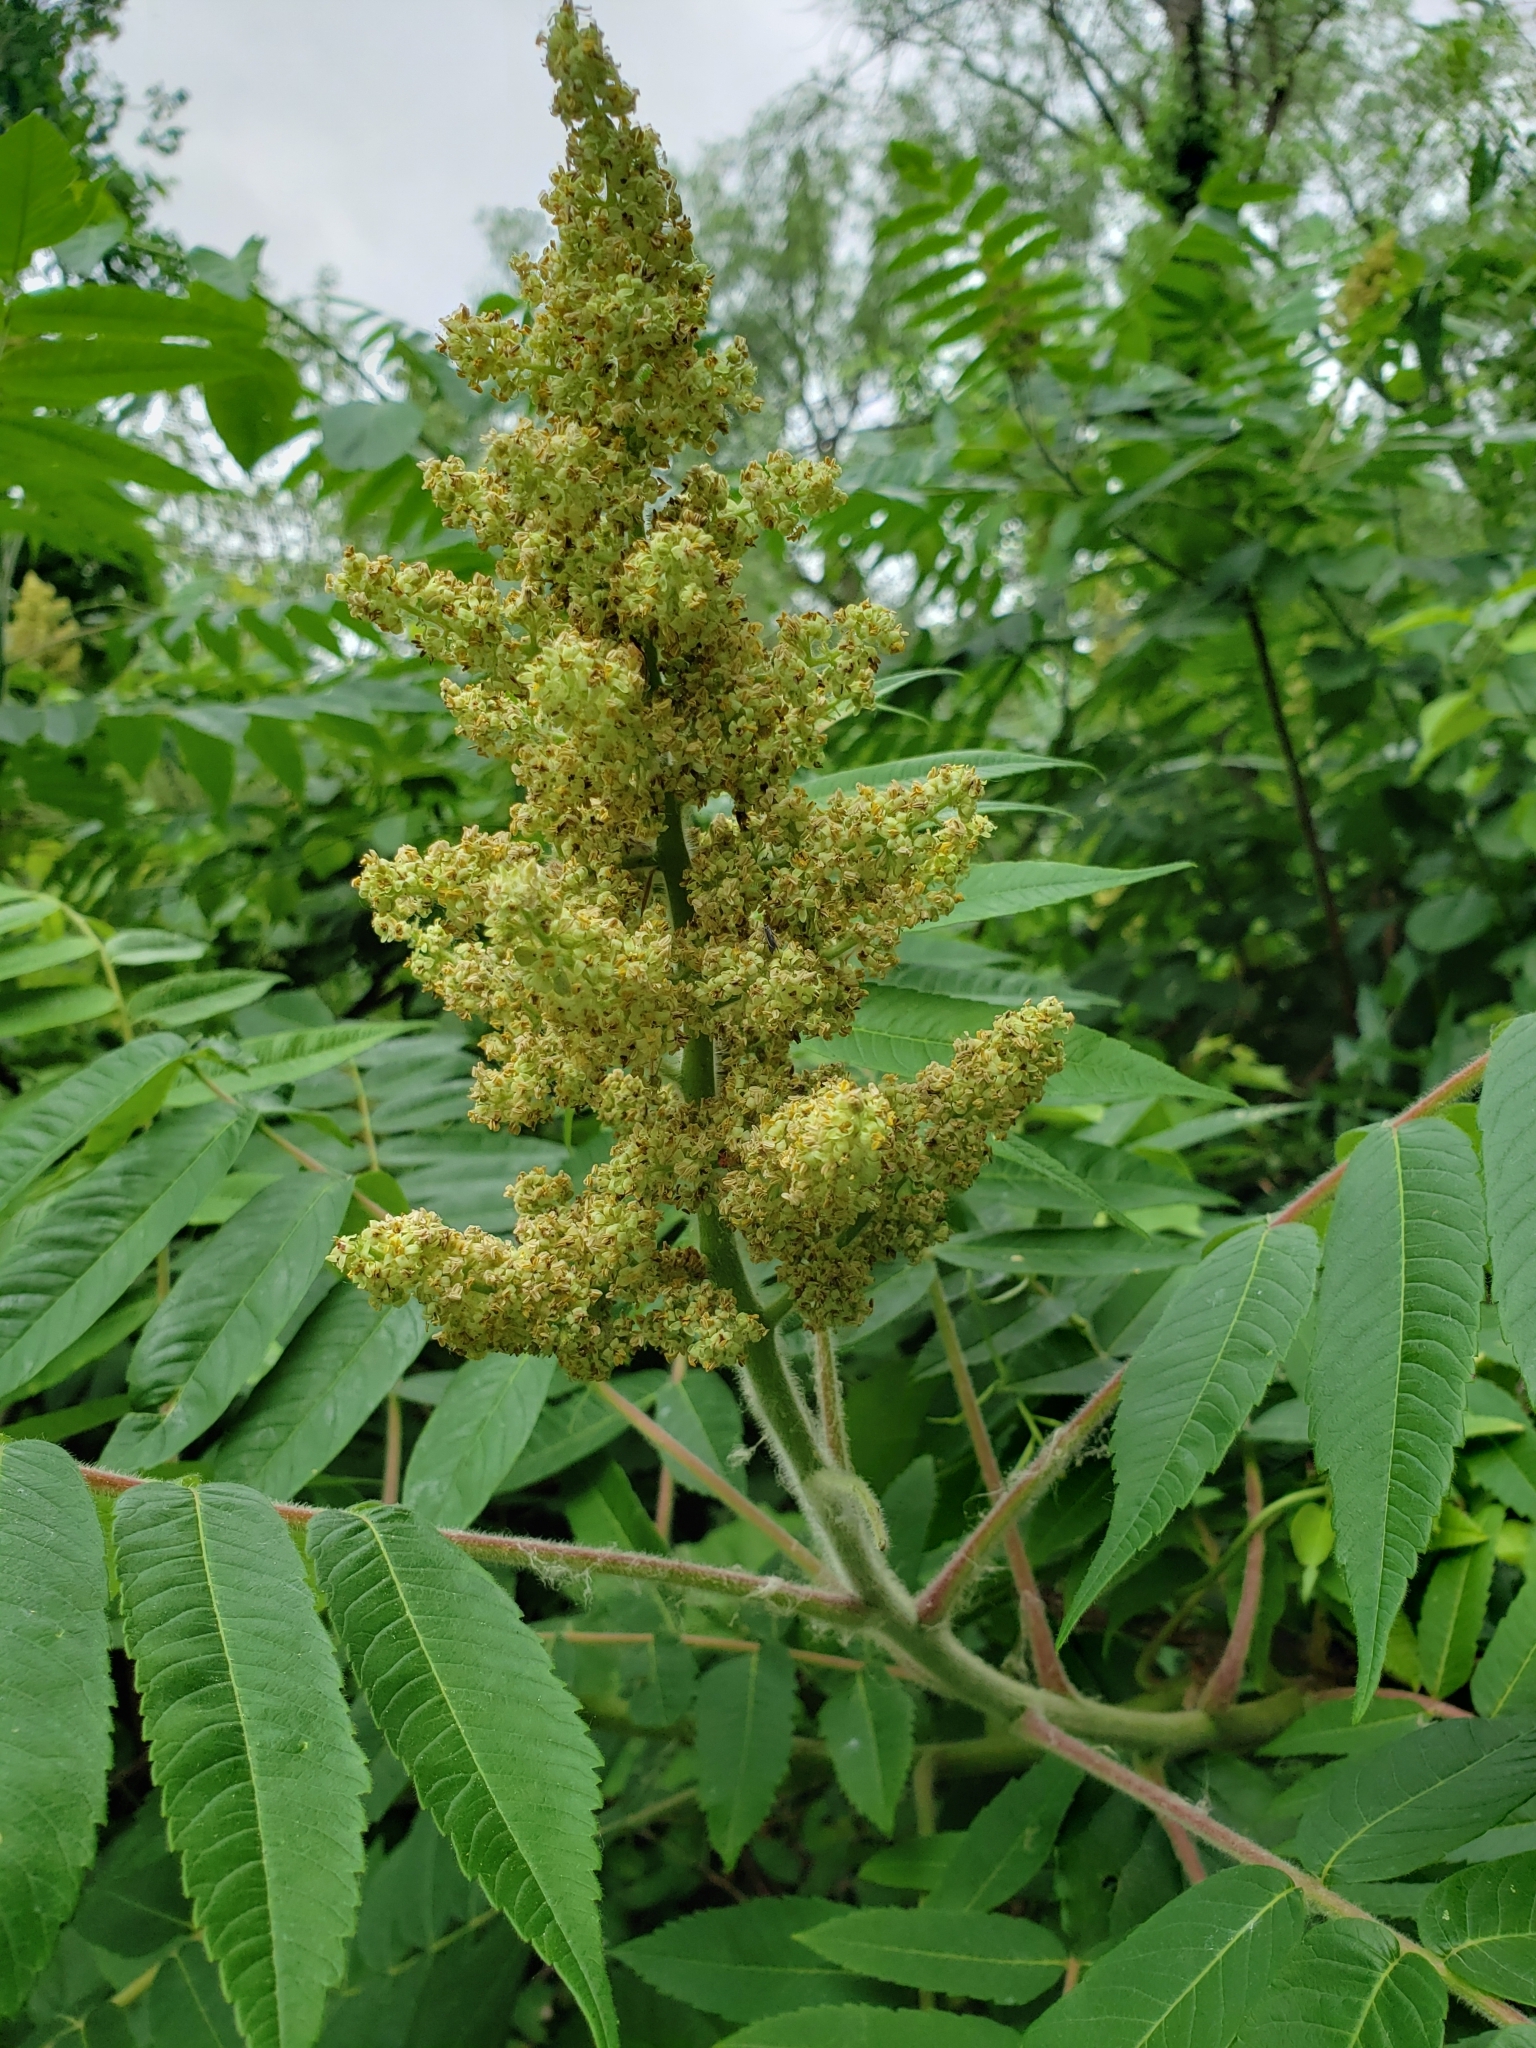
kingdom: Plantae
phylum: Tracheophyta
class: Magnoliopsida
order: Sapindales
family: Anacardiaceae
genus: Rhus
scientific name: Rhus typhina
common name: Staghorn sumac
